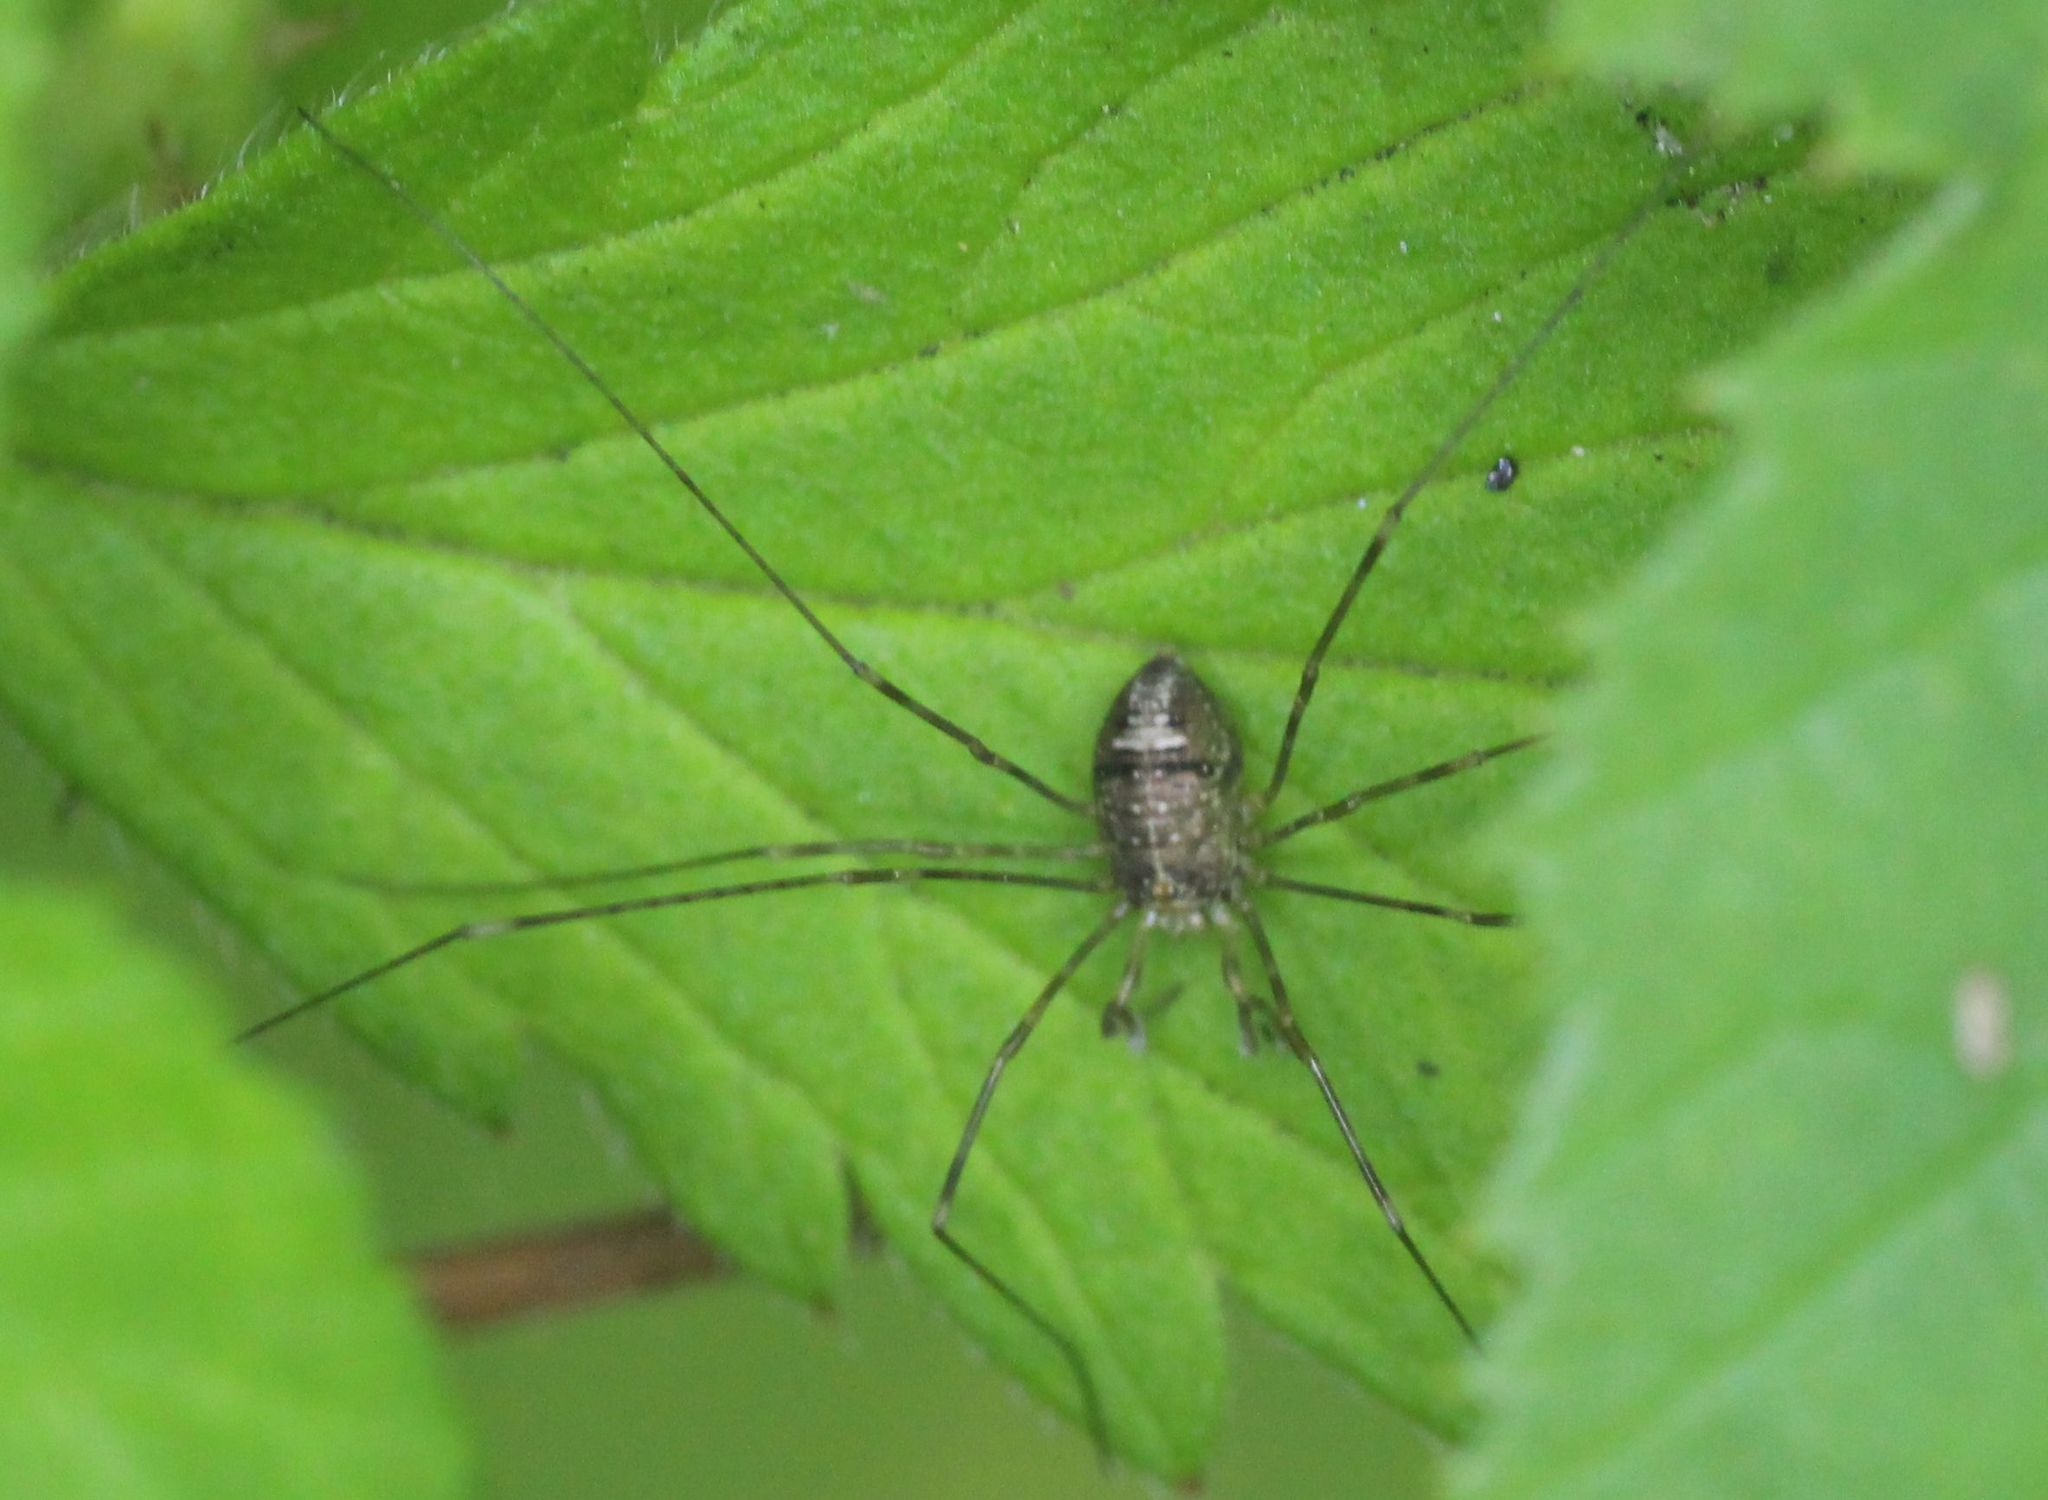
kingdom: Animalia
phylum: Arthropoda
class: Arachnida
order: Opiliones
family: Phalangiidae
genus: Dicranopalpus
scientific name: Dicranopalpus ramosus
